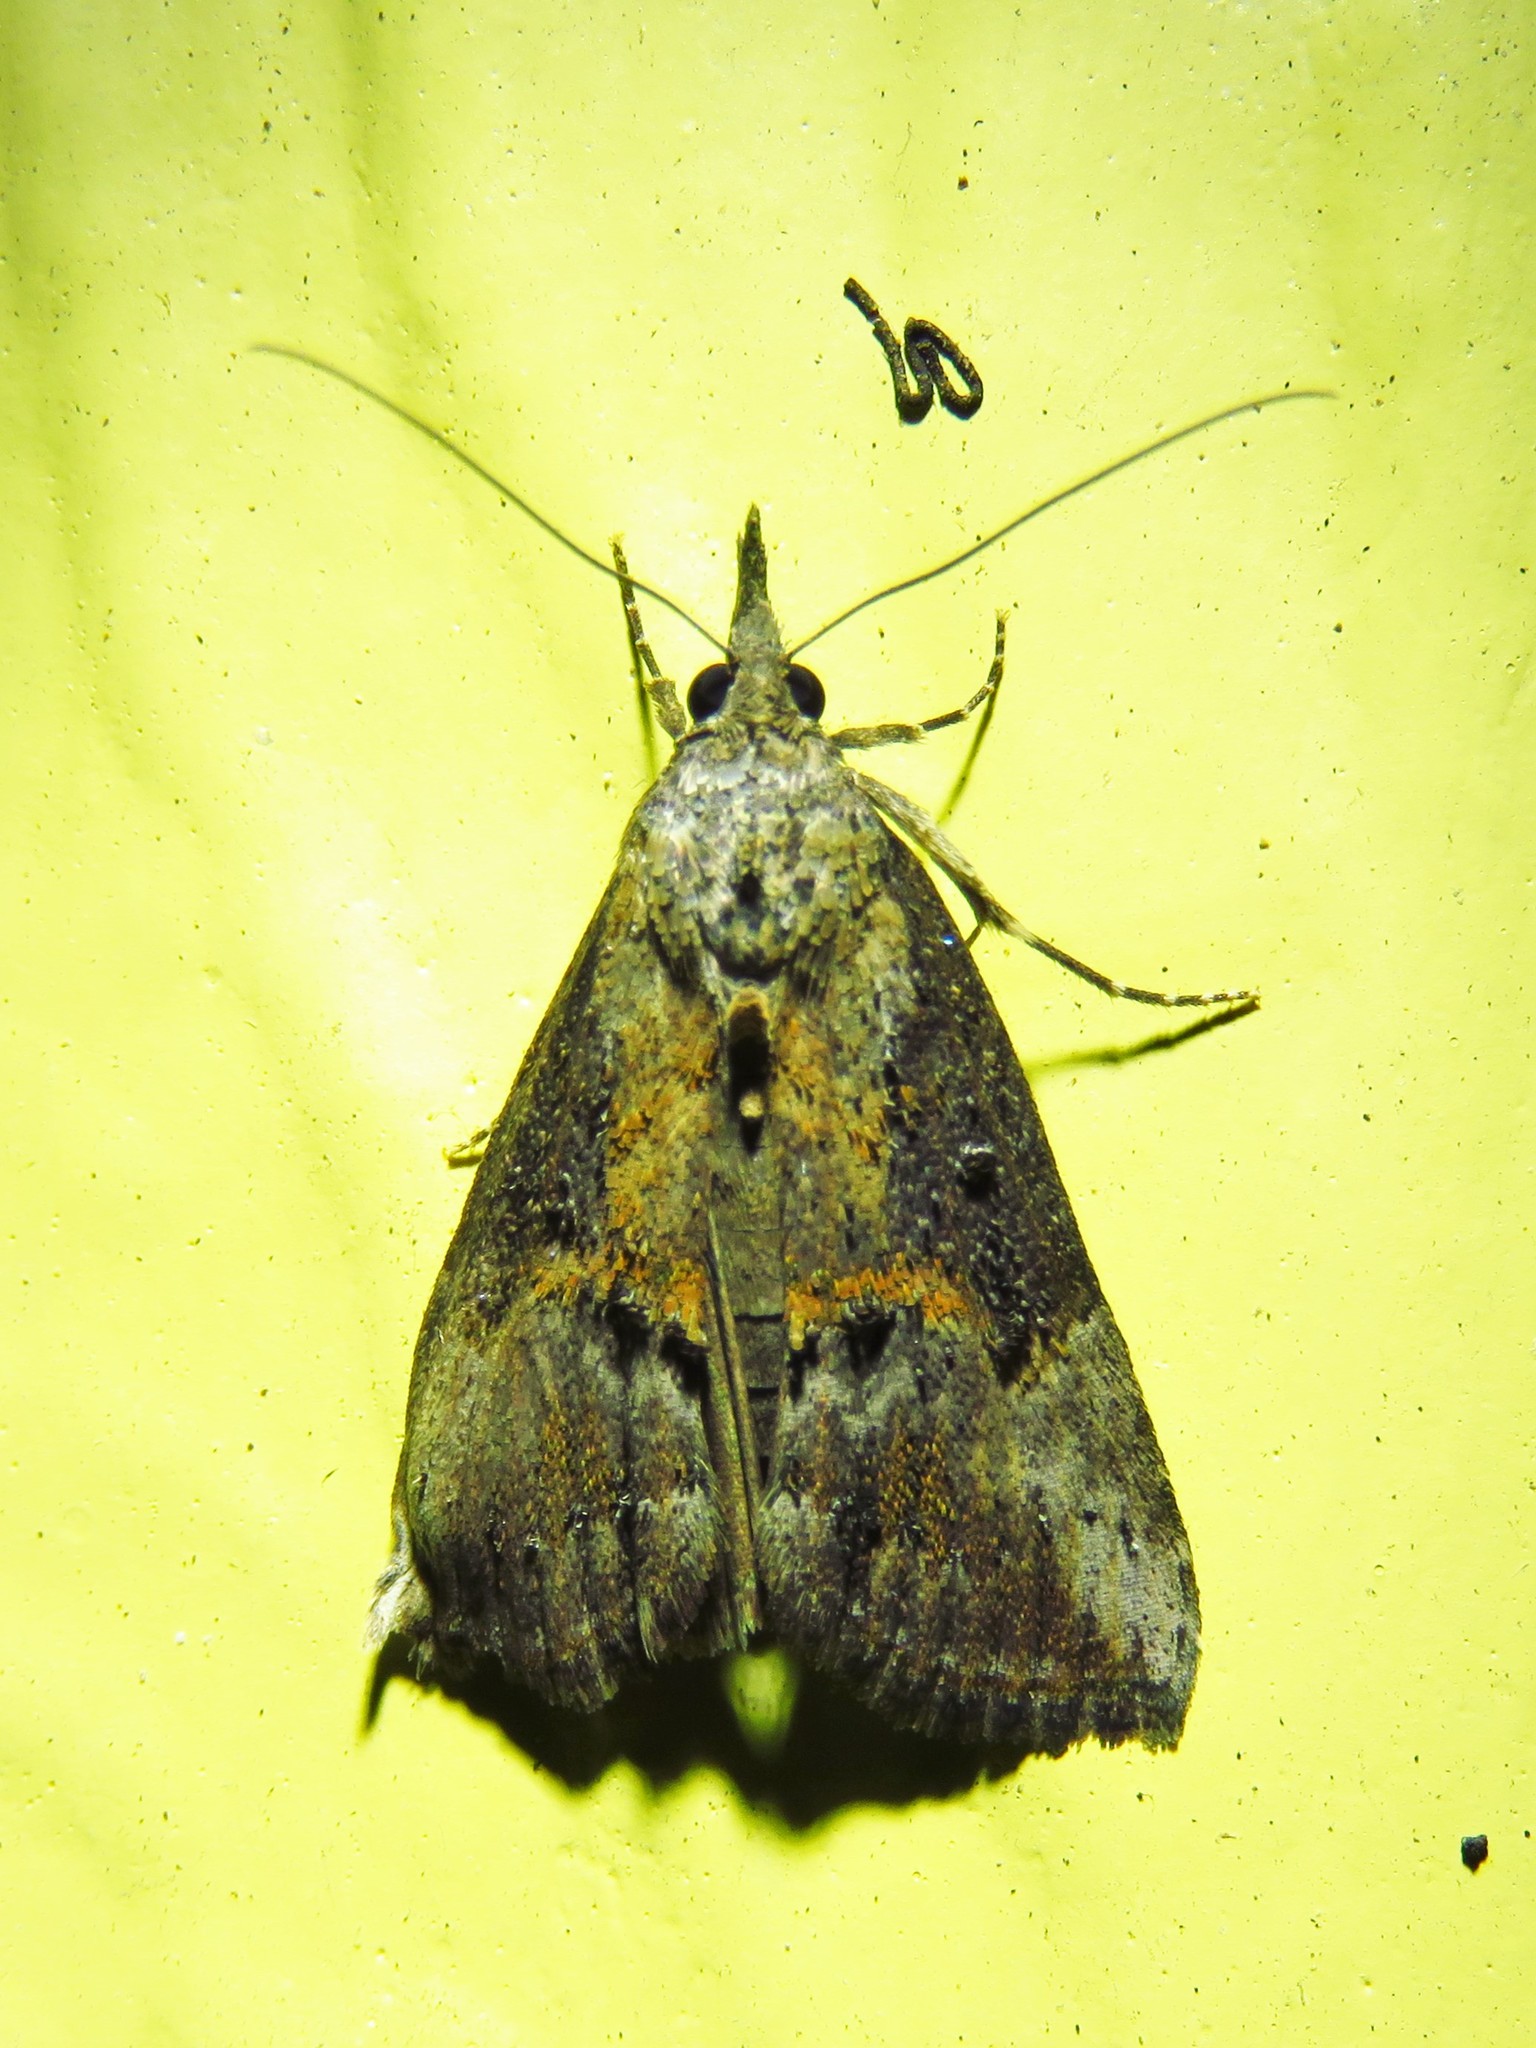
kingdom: Animalia
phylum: Arthropoda
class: Insecta
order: Lepidoptera
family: Erebidae
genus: Hypena
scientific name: Hypena scabra
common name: Green cloverworm
